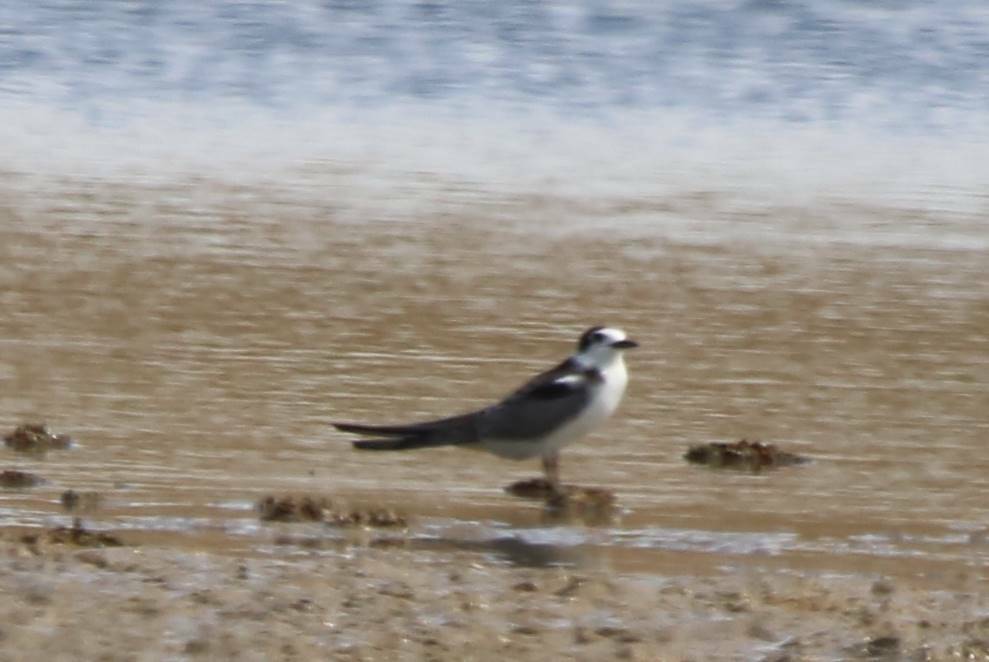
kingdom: Animalia
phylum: Chordata
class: Aves
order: Charadriiformes
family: Laridae
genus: Chlidonias
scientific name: Chlidonias leucopterus
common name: White-winged tern
